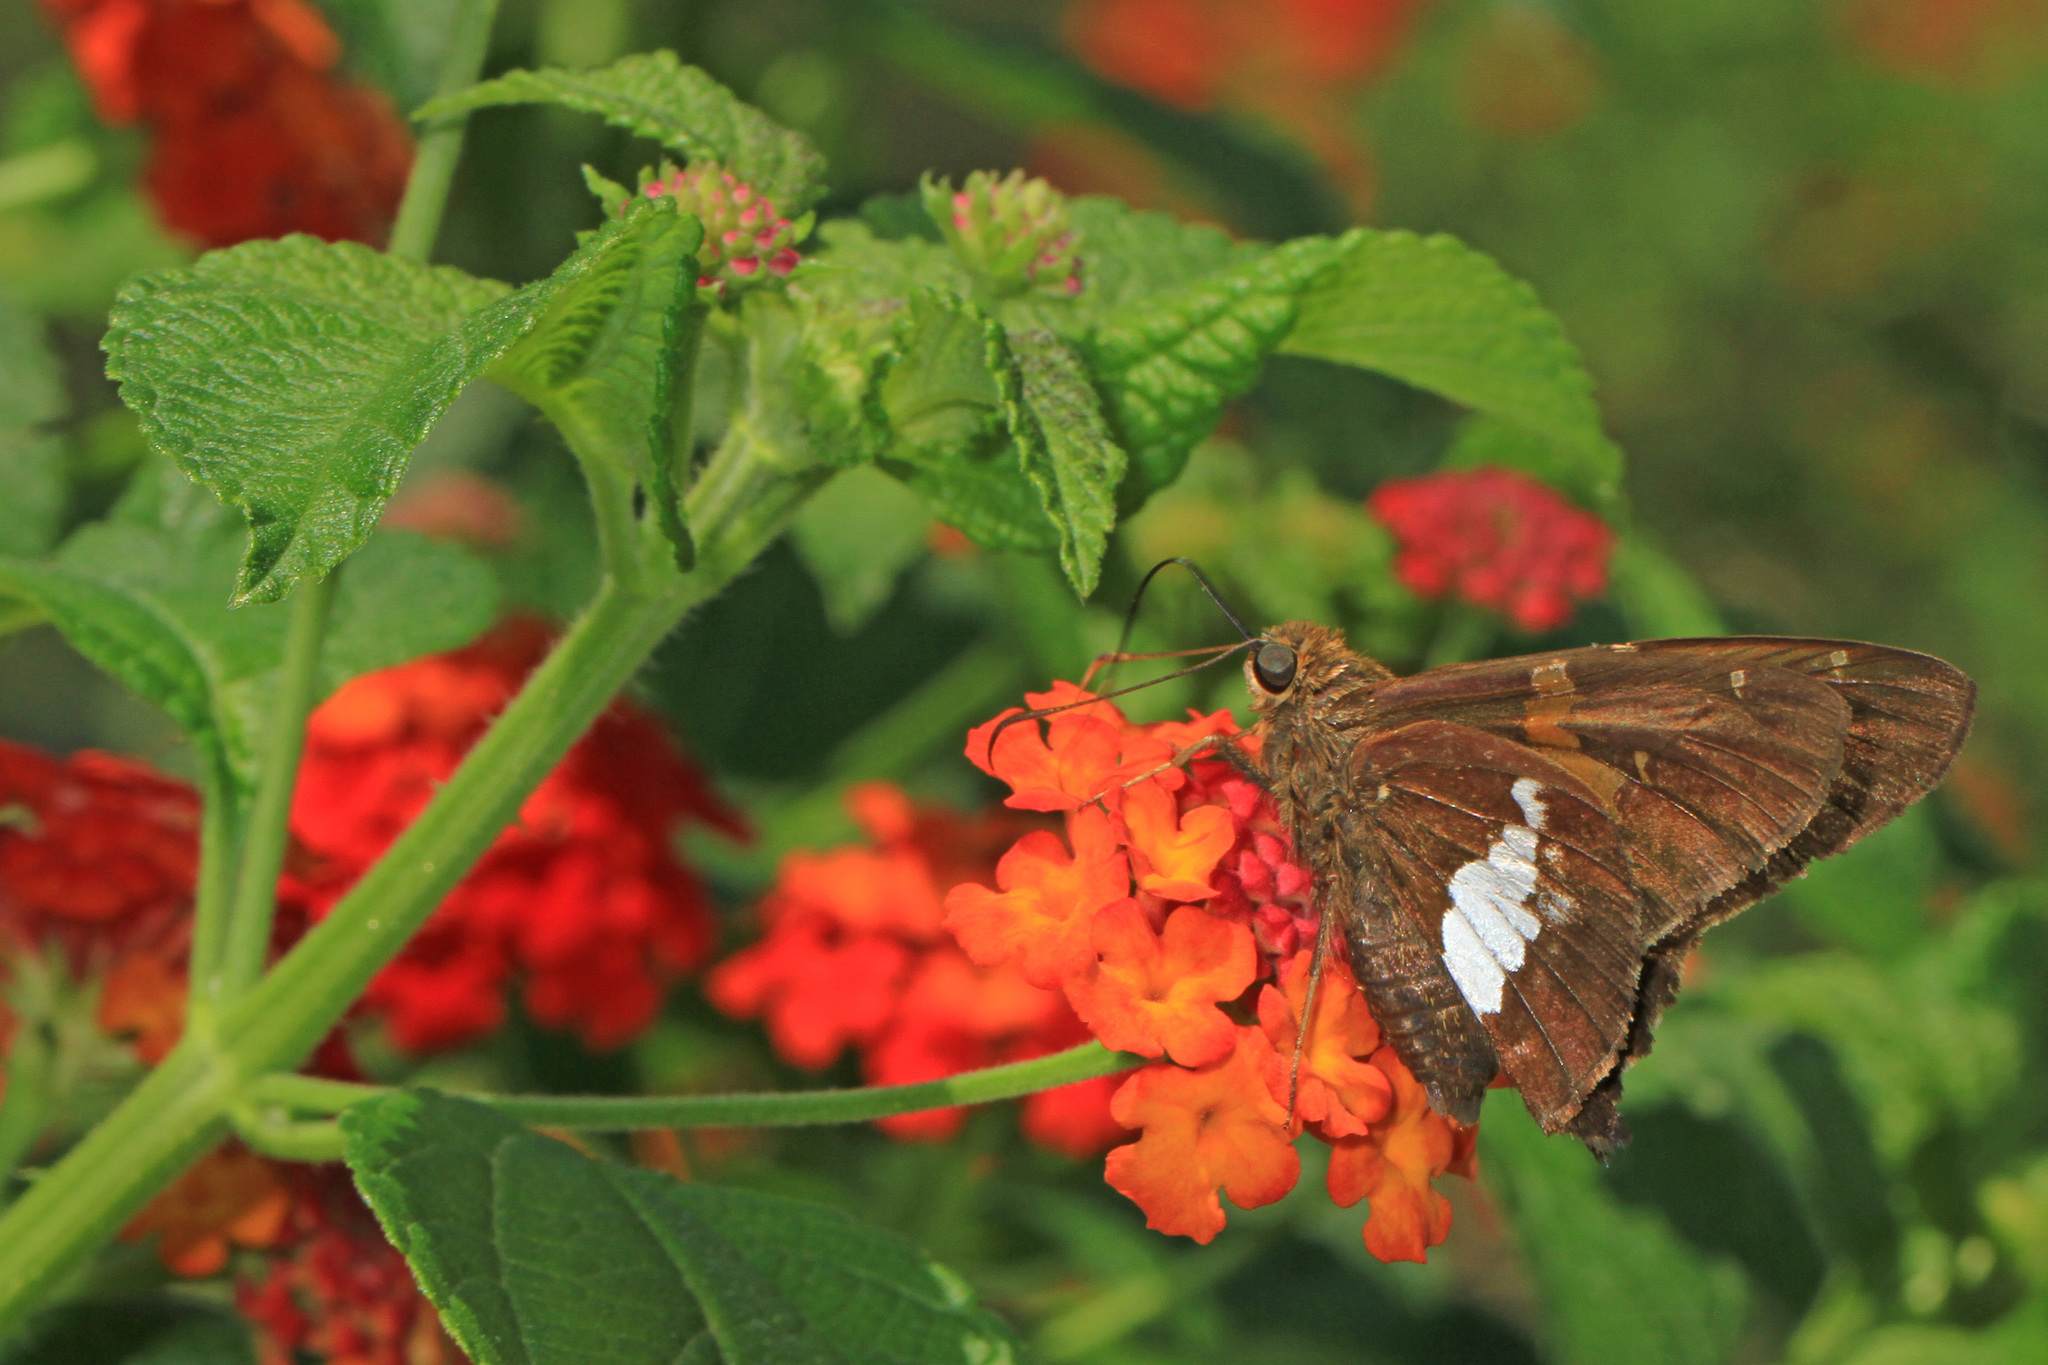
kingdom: Animalia
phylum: Arthropoda
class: Insecta
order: Lepidoptera
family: Hesperiidae
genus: Epargyreus
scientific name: Epargyreus clarus
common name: Silver-spotted skipper
